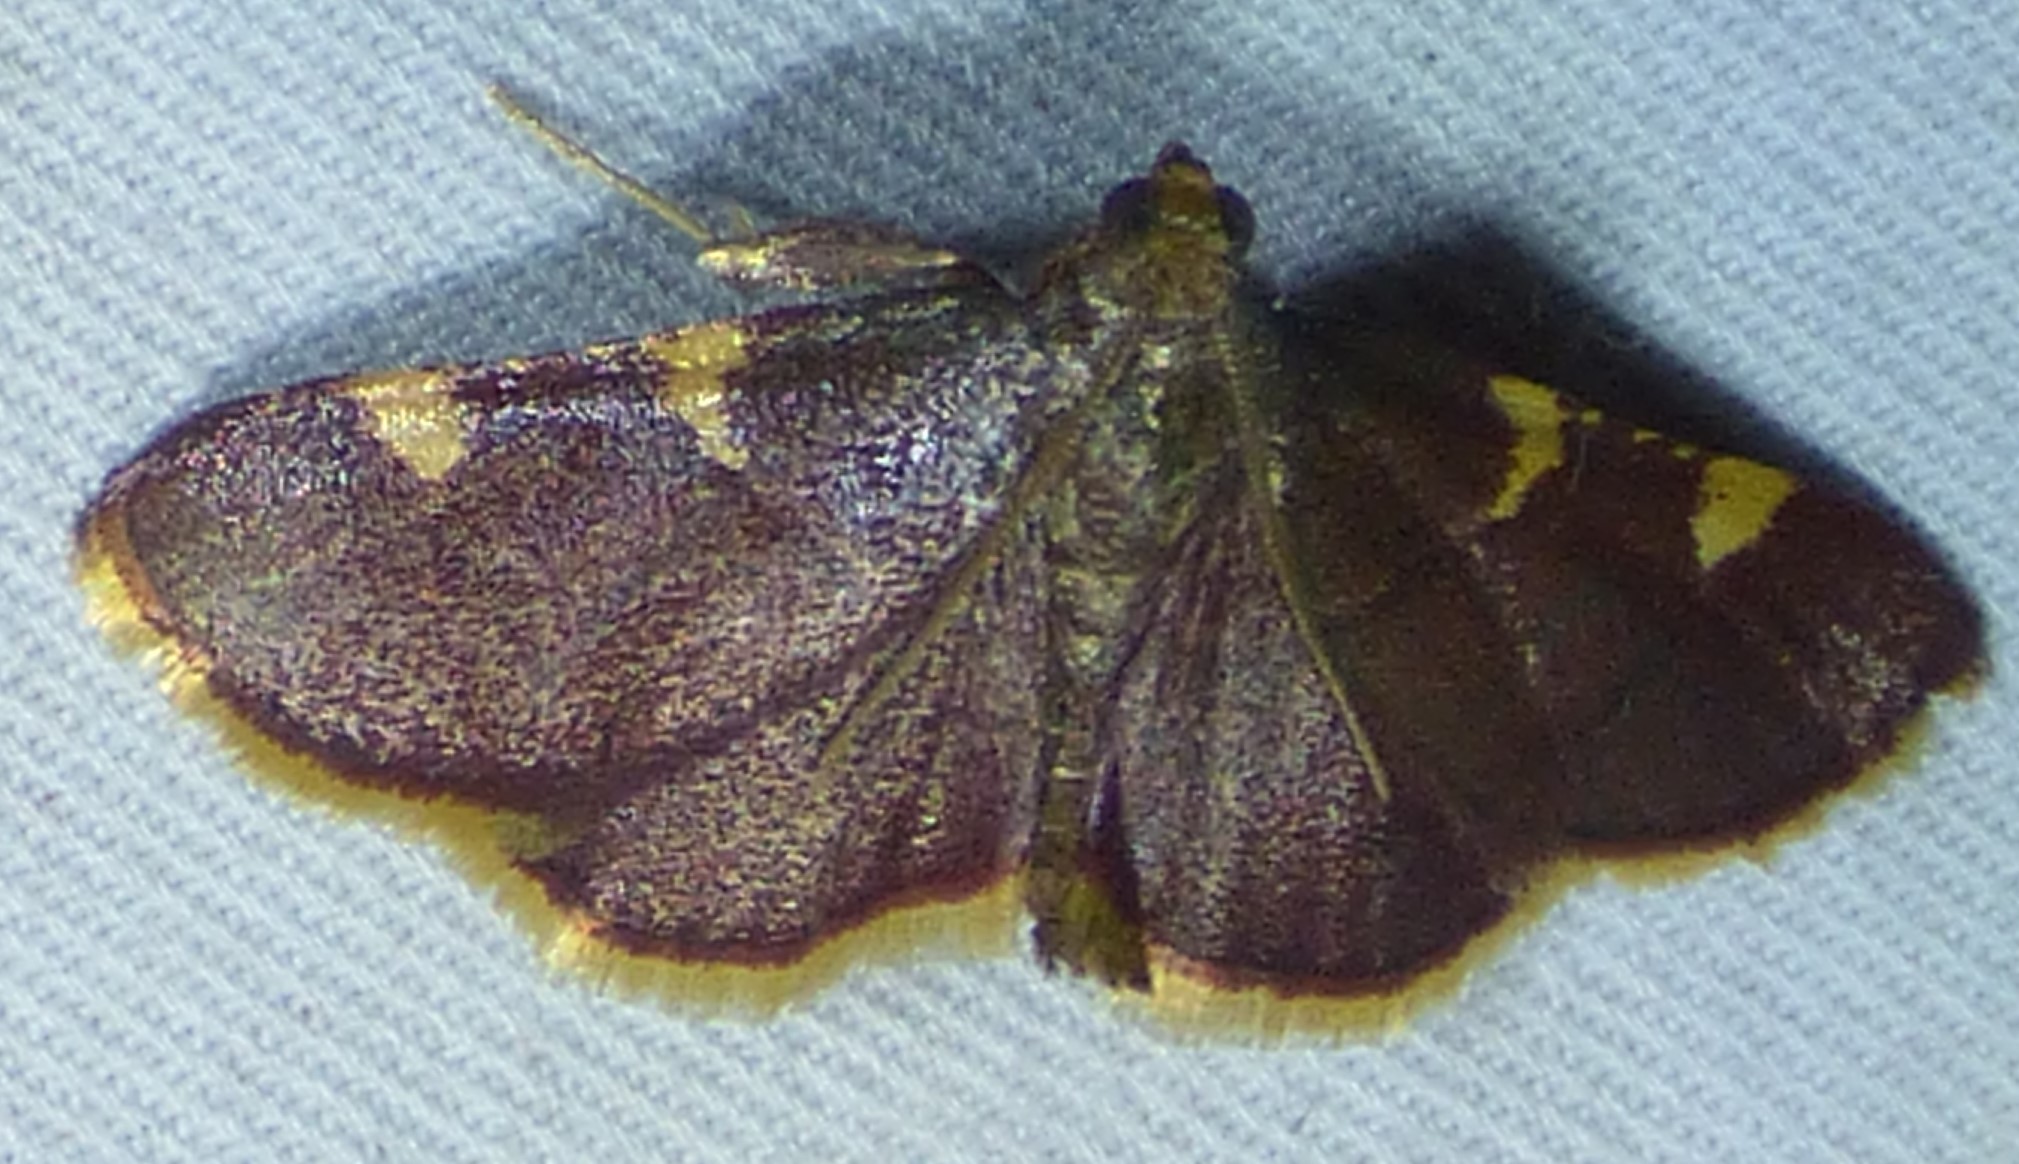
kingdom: Animalia
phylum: Arthropoda
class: Insecta
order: Lepidoptera
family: Pyralidae
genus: Hypsopygia
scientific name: Hypsopygia olinalis
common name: Yellow-fringed dolichomia moth
